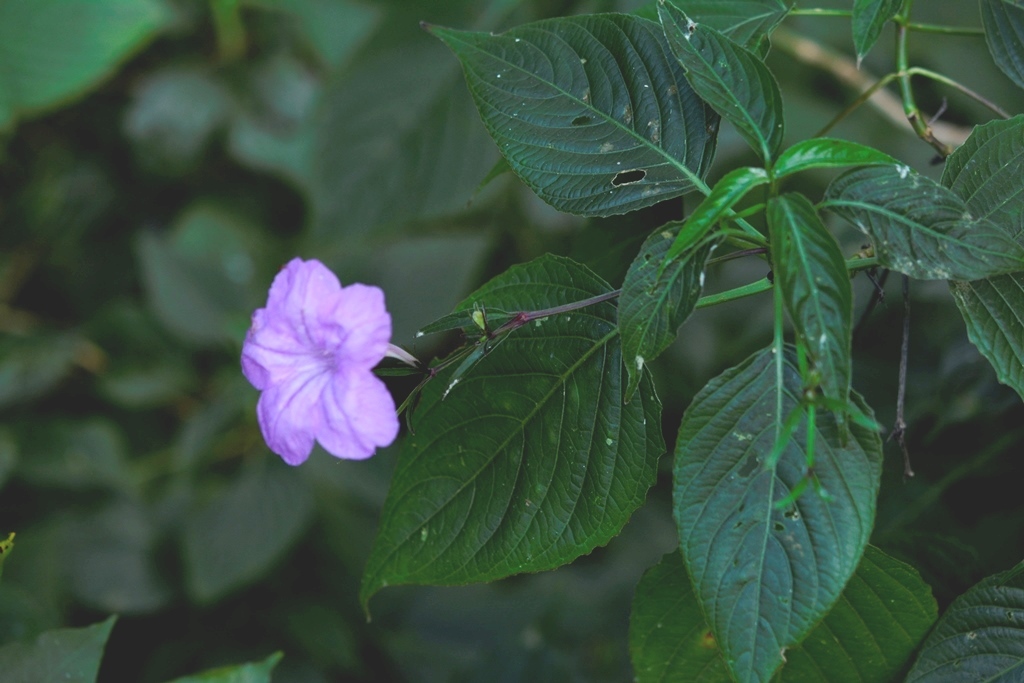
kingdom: Plantae
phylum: Tracheophyta
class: Magnoliopsida
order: Lamiales
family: Acanthaceae
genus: Ruellia
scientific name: Ruellia breedlovei
